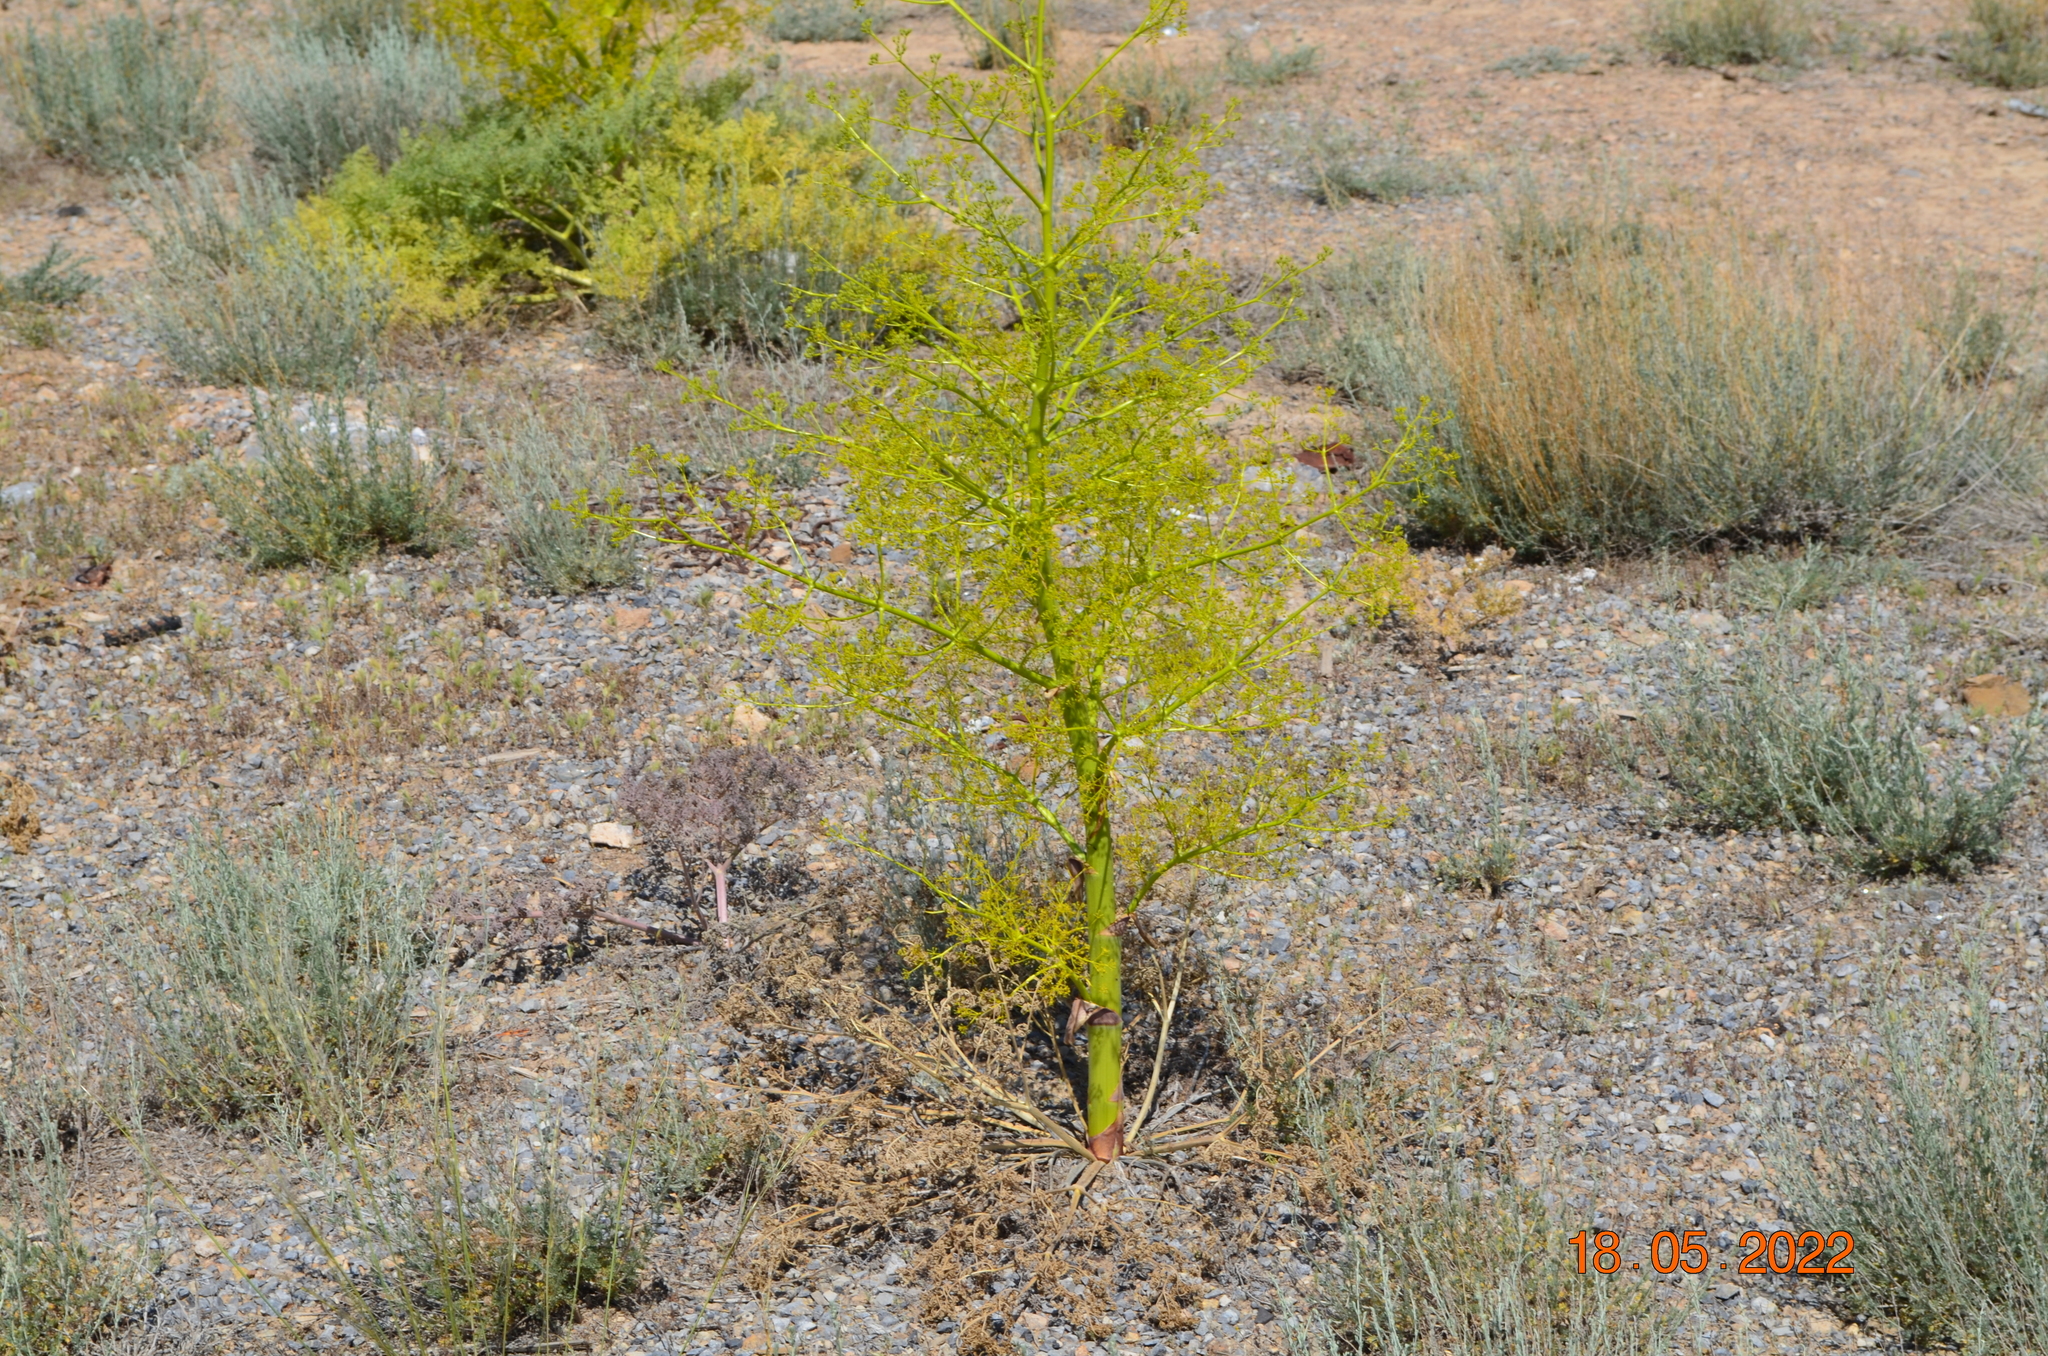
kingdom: Plantae
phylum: Tracheophyta
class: Magnoliopsida
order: Apiales
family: Apiaceae
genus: Ferula
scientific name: Ferula resinosa
